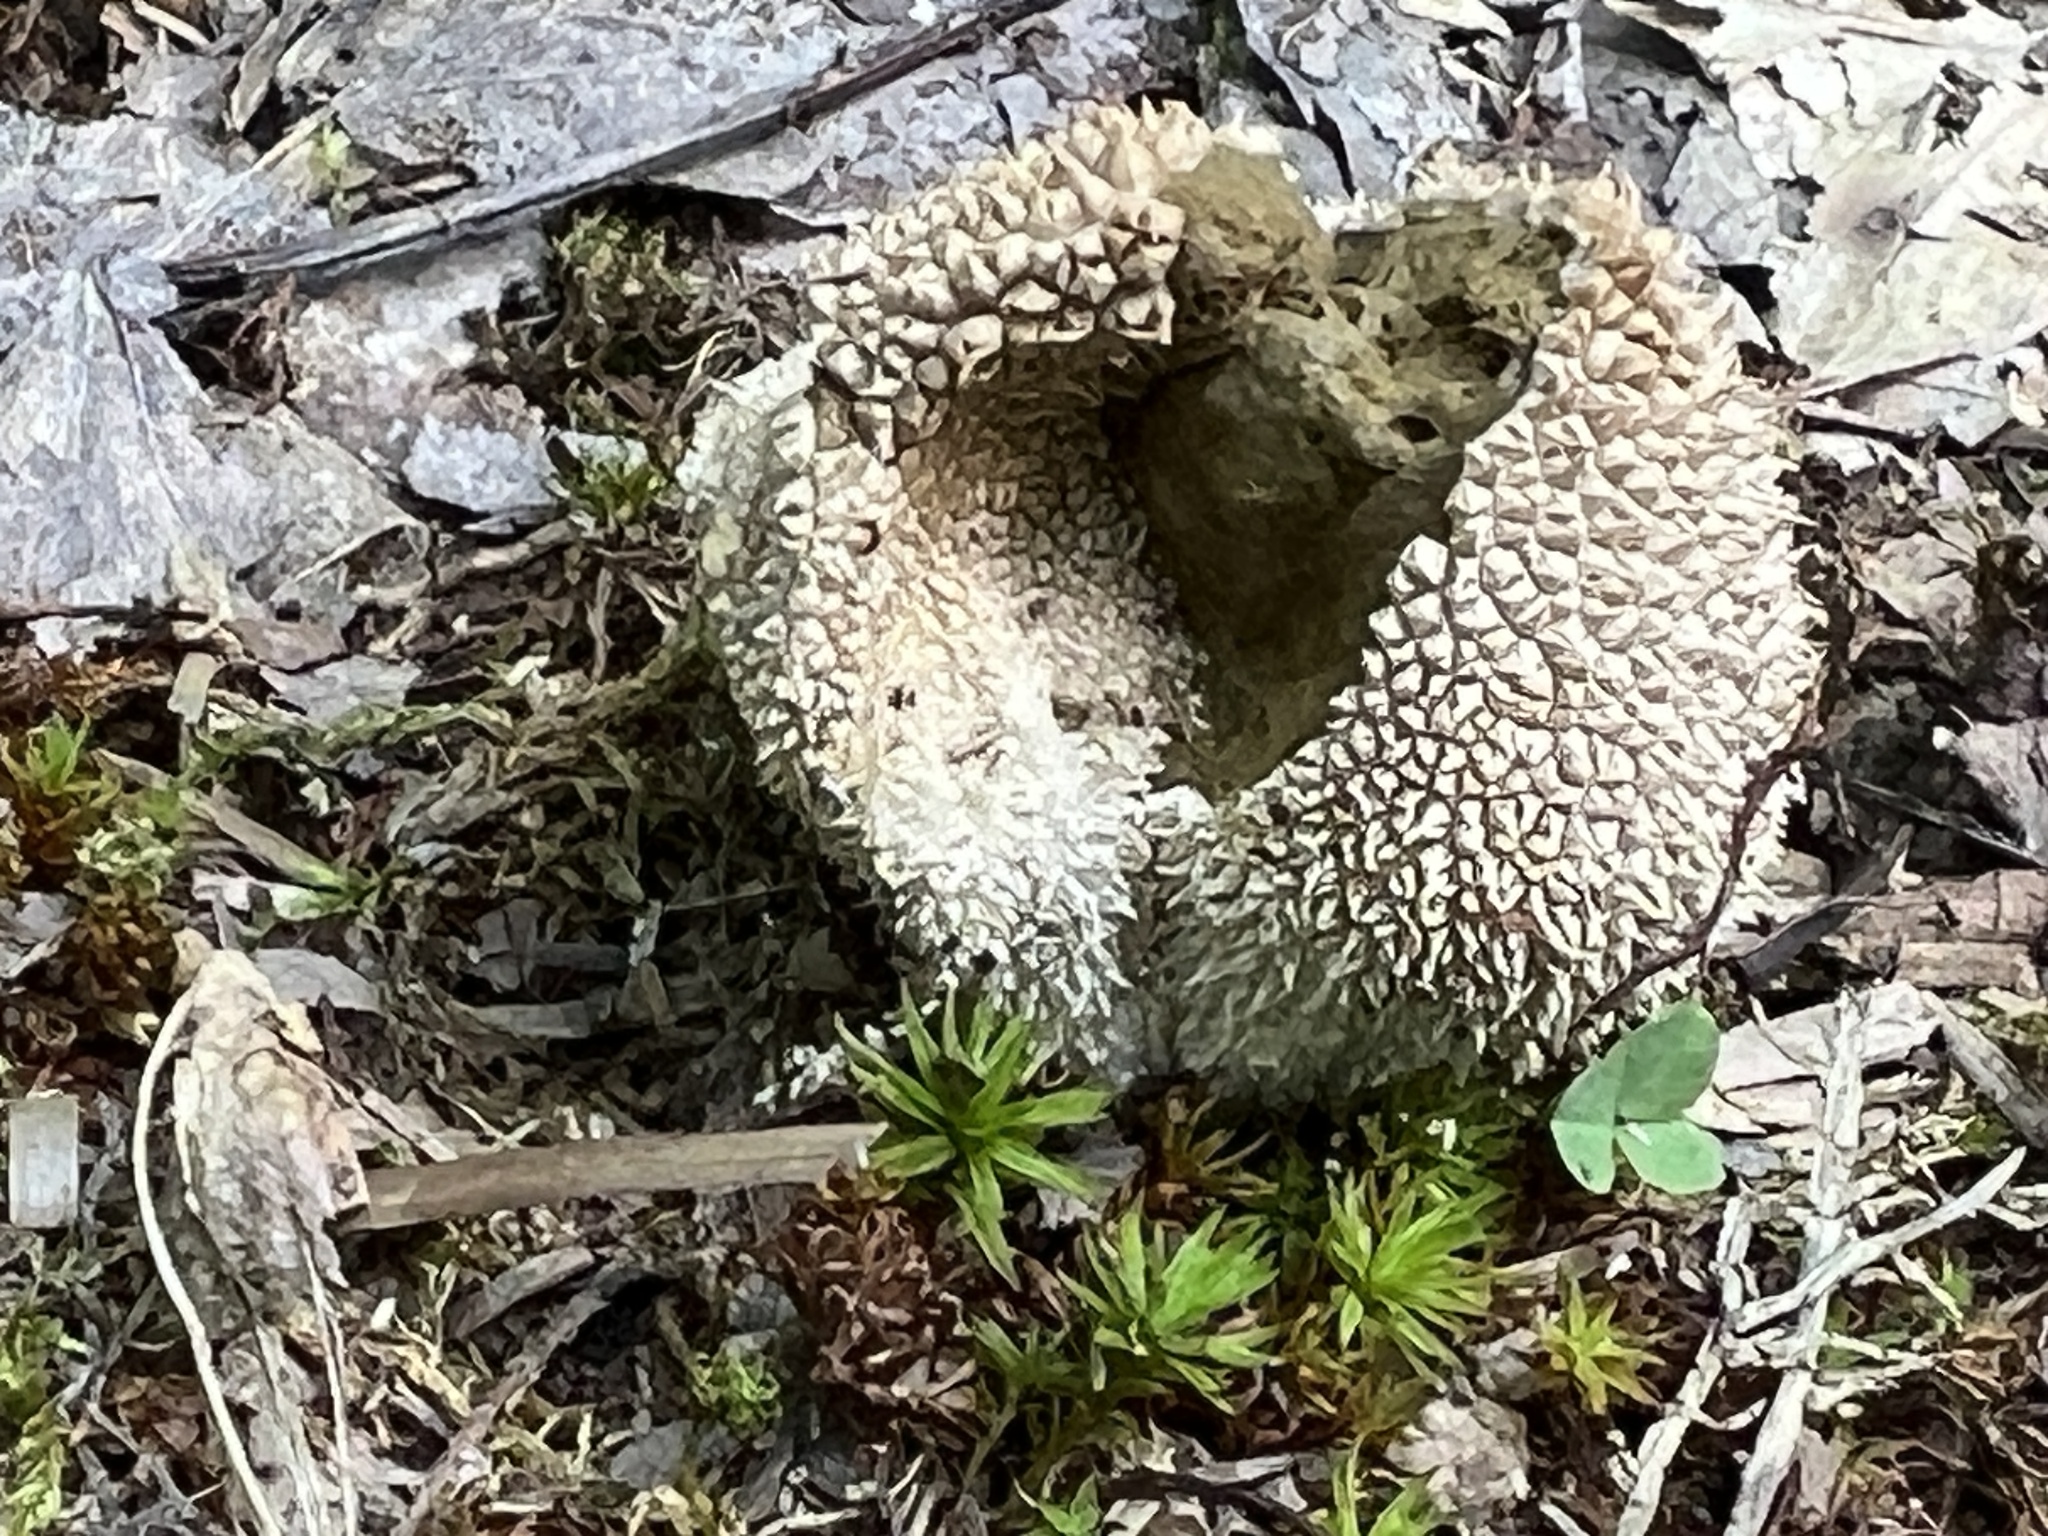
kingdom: Fungi
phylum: Basidiomycota
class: Agaricomycetes
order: Agaricales
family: Lycoperdaceae
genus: Lycoperdon
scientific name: Lycoperdon echinatum
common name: Hedgehog puffball
